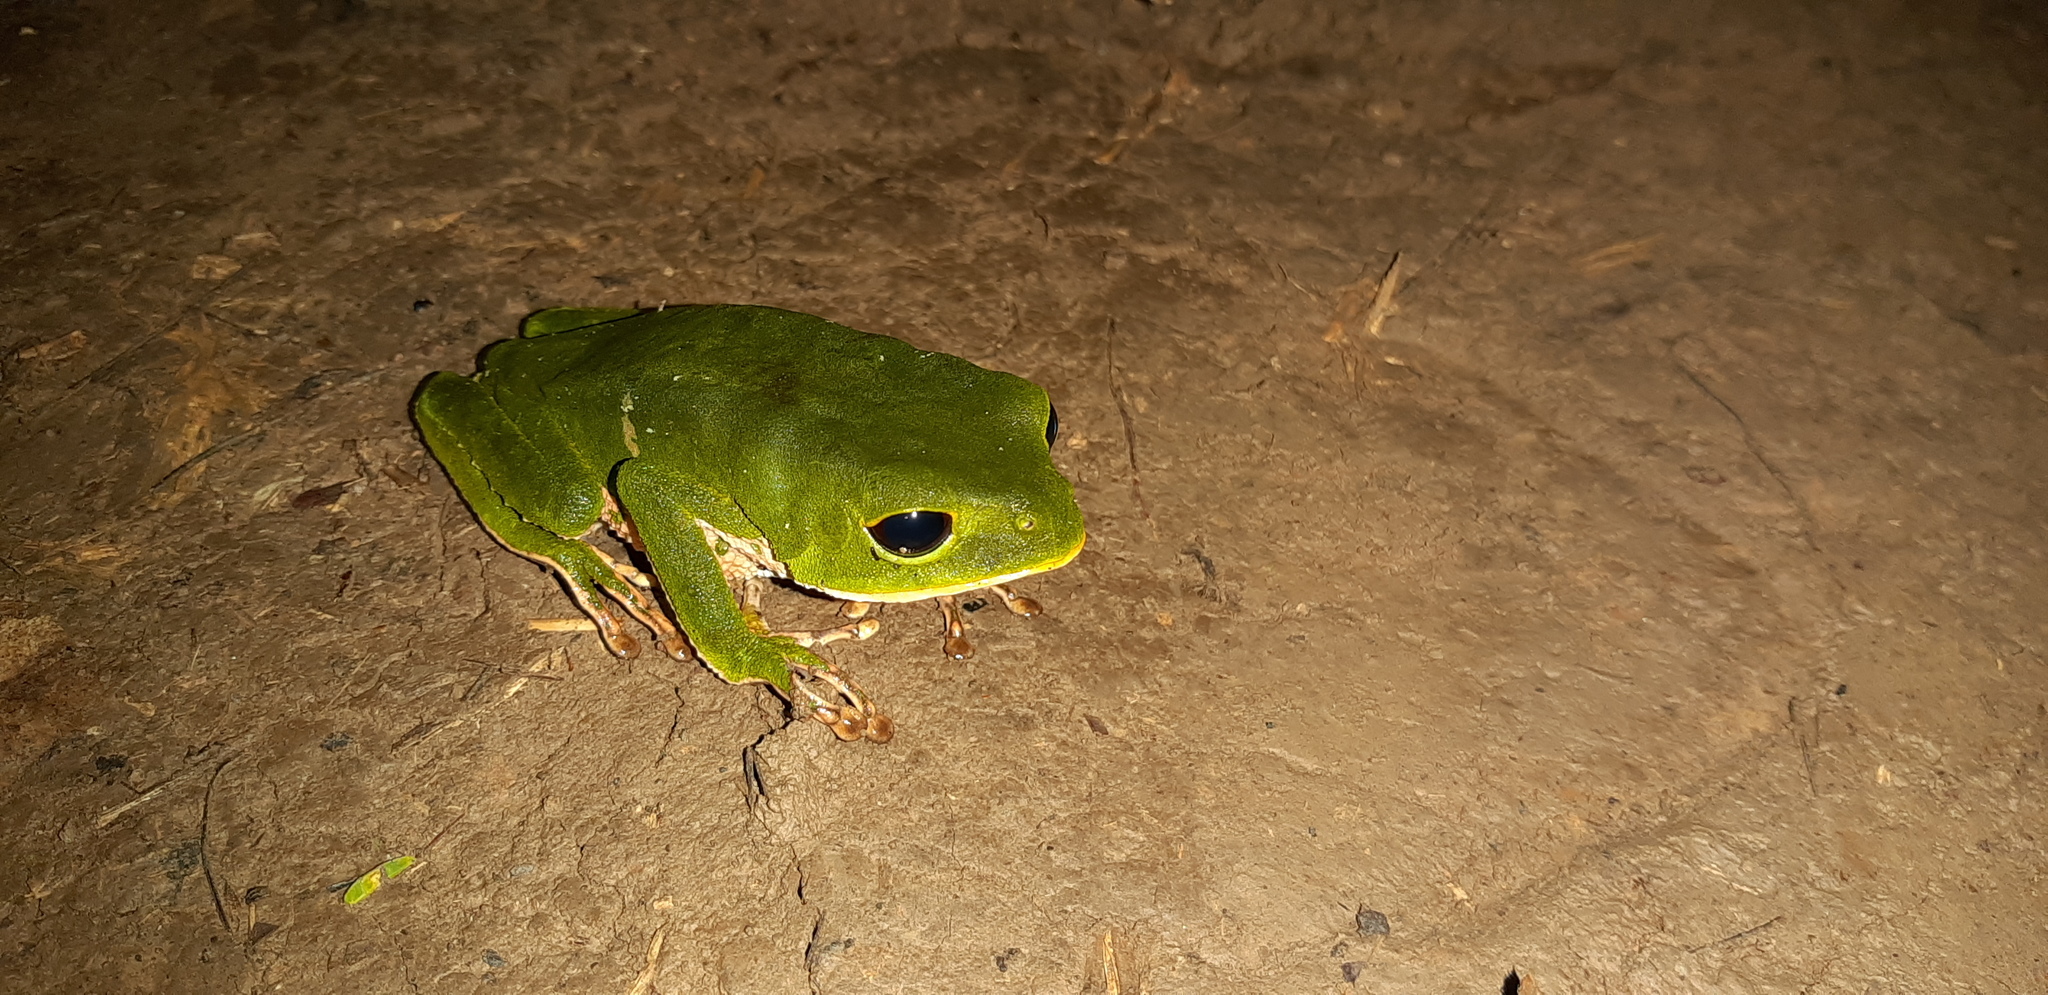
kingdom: Animalia
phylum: Chordata
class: Amphibia
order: Anura
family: Phyllomedusidae
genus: Phyllomedusa
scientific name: Phyllomedusa camba
